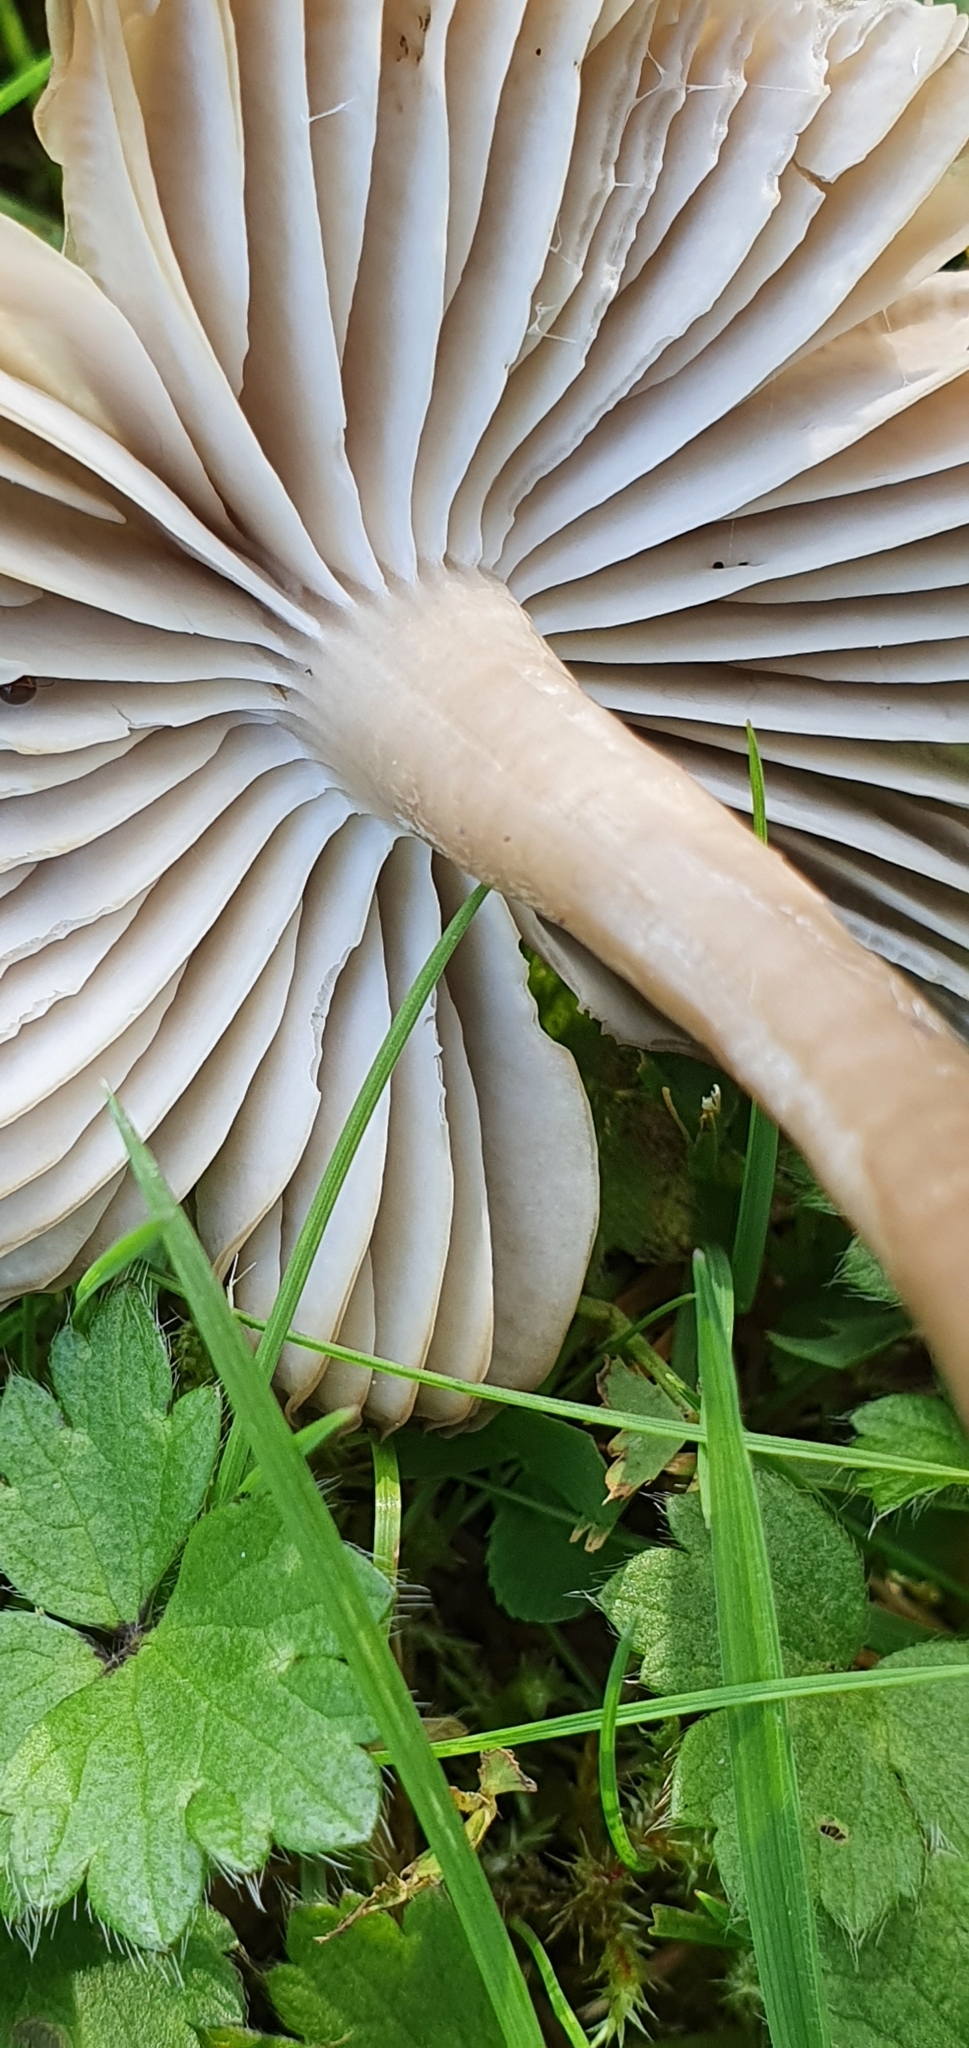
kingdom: Fungi
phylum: Basidiomycota
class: Agaricomycetes
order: Agaricales
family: Hygrophoraceae
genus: Gliophorus
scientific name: Gliophorus irrigatus
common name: Slimy waxcap
